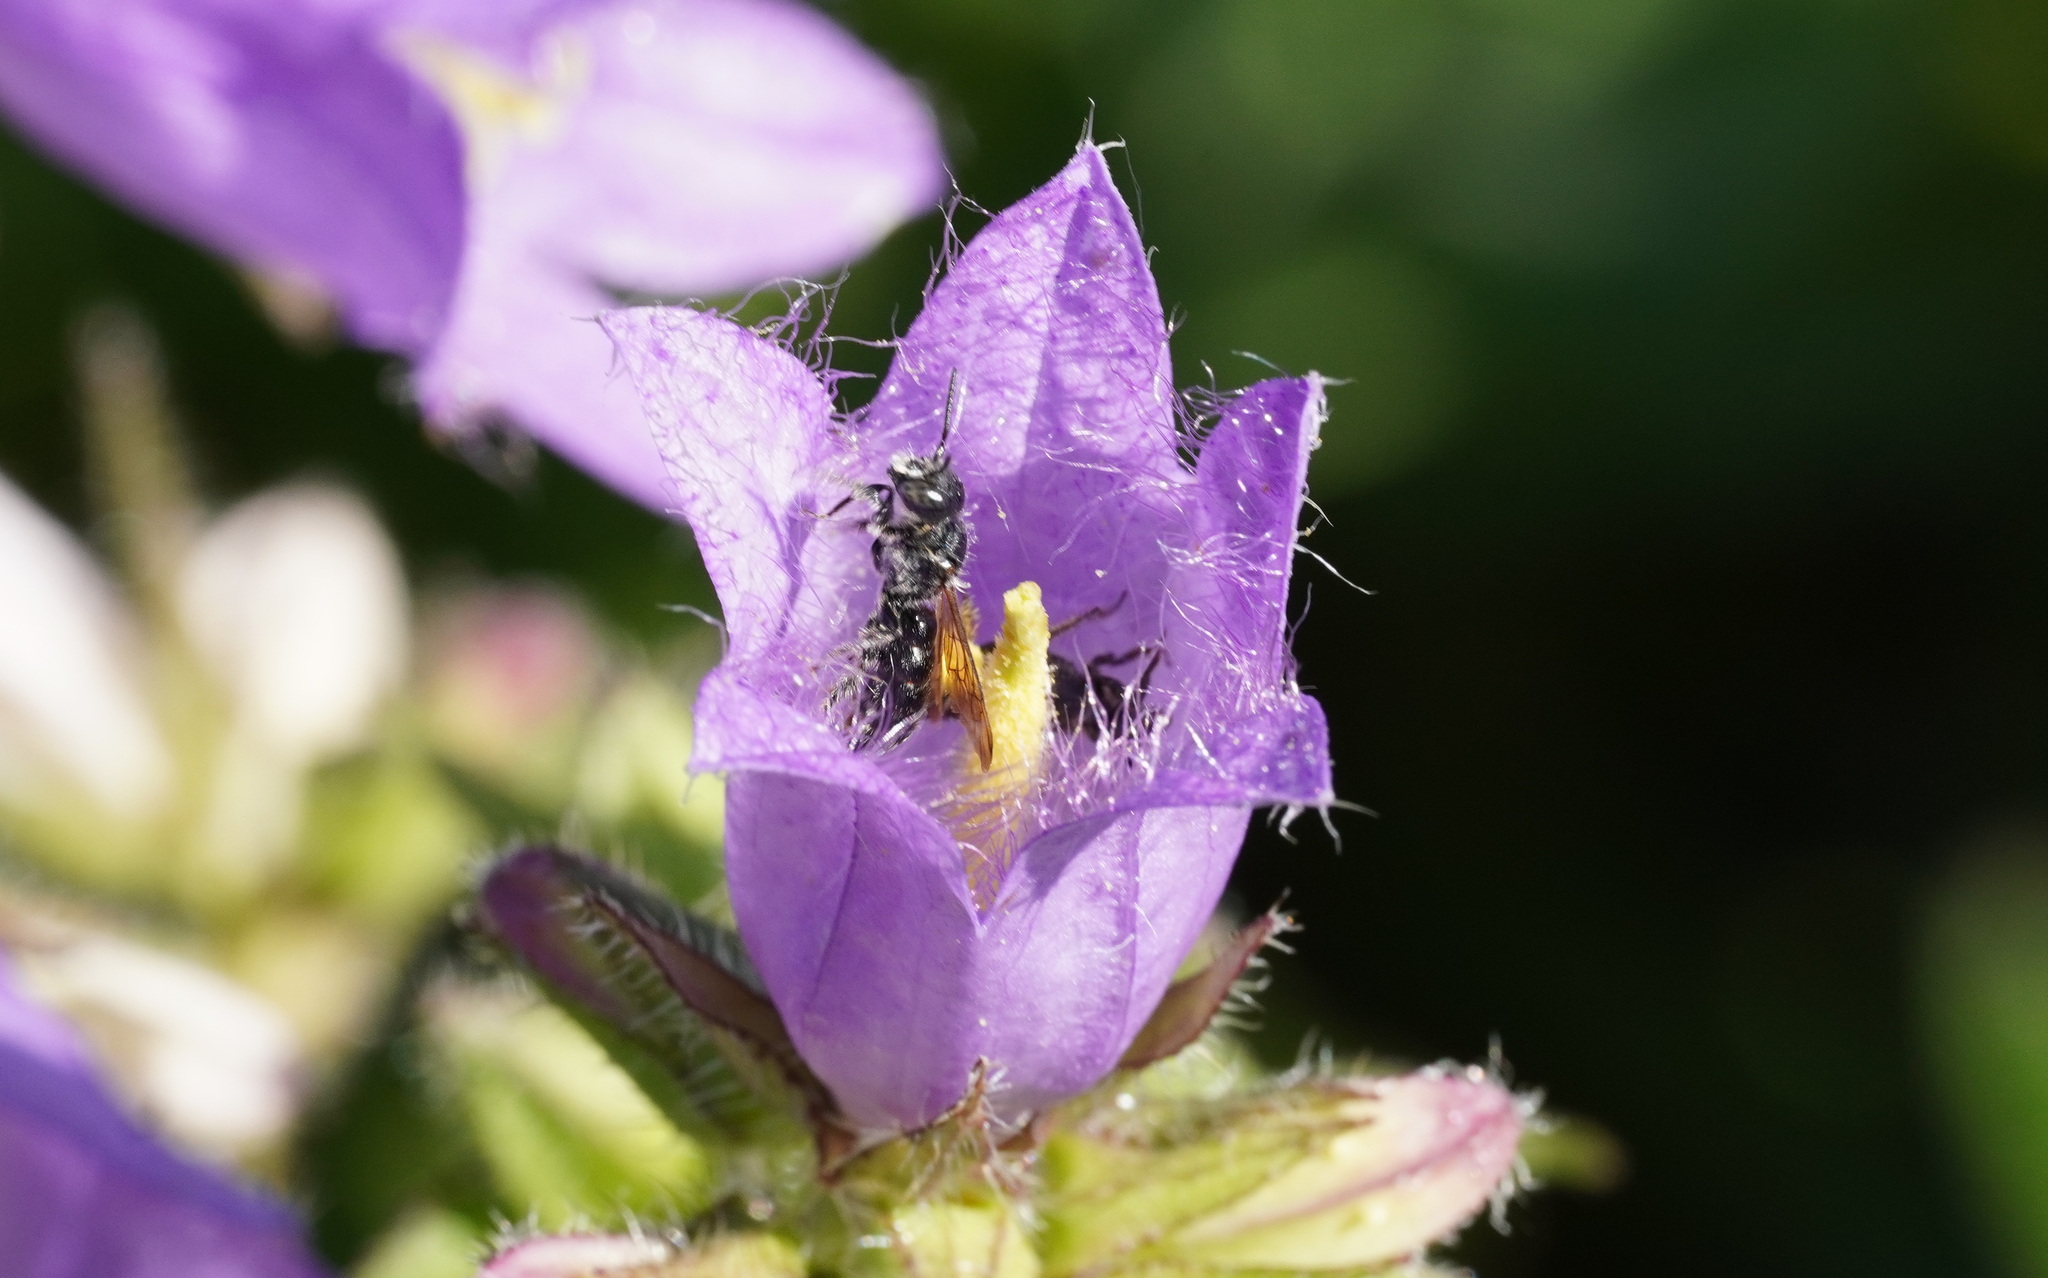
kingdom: Animalia
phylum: Arthropoda
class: Insecta
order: Hymenoptera
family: Megachilidae
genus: Chelostoma
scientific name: Chelostoma rapunculi
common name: Rampion scissor bee
